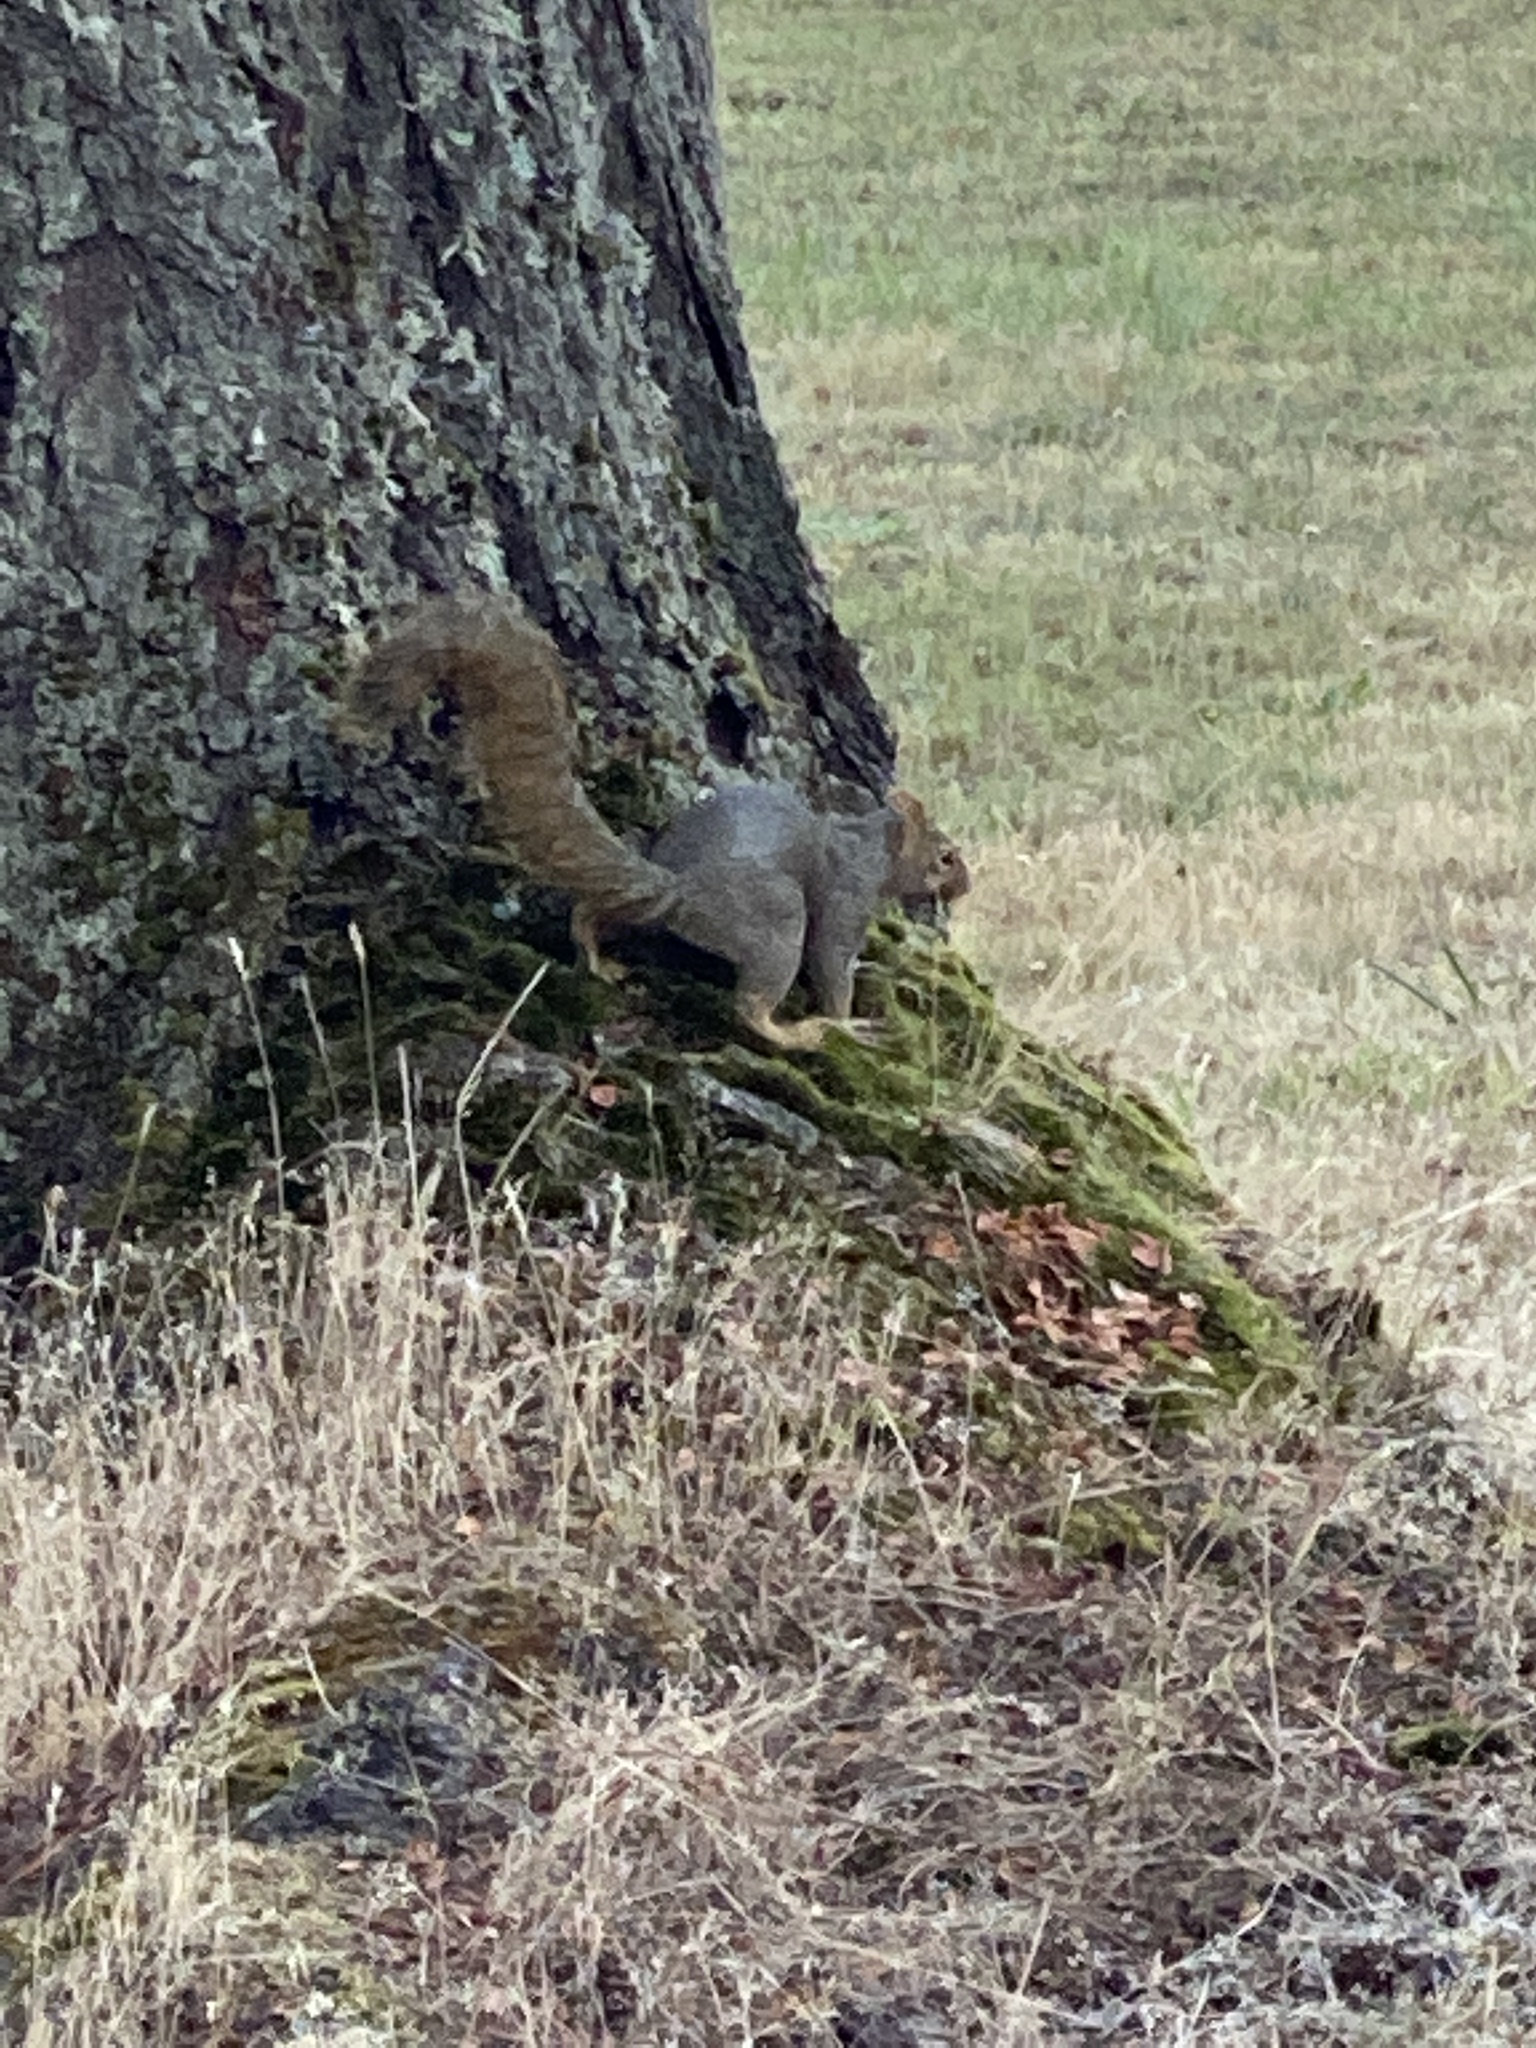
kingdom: Animalia
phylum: Chordata
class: Mammalia
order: Rodentia
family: Sciuridae
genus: Sciurus
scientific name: Sciurus carolinensis
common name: Eastern gray squirrel
